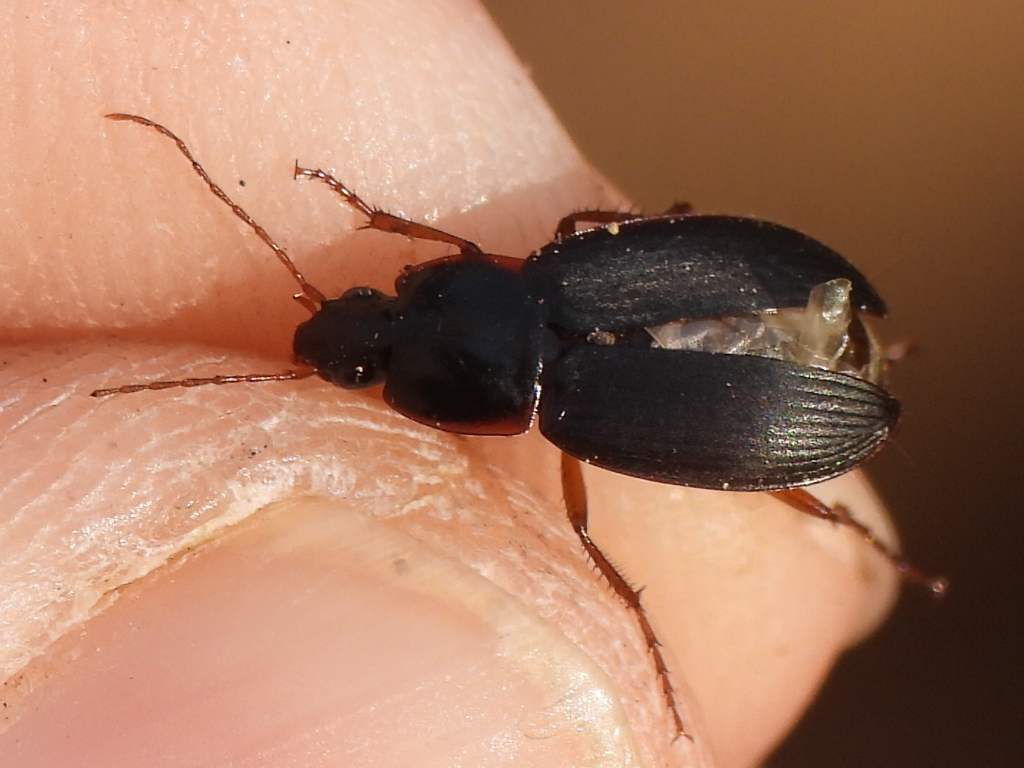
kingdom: Animalia
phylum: Arthropoda
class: Insecta
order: Coleoptera
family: Carabidae
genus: Calathus
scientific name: Calathus opaculus
